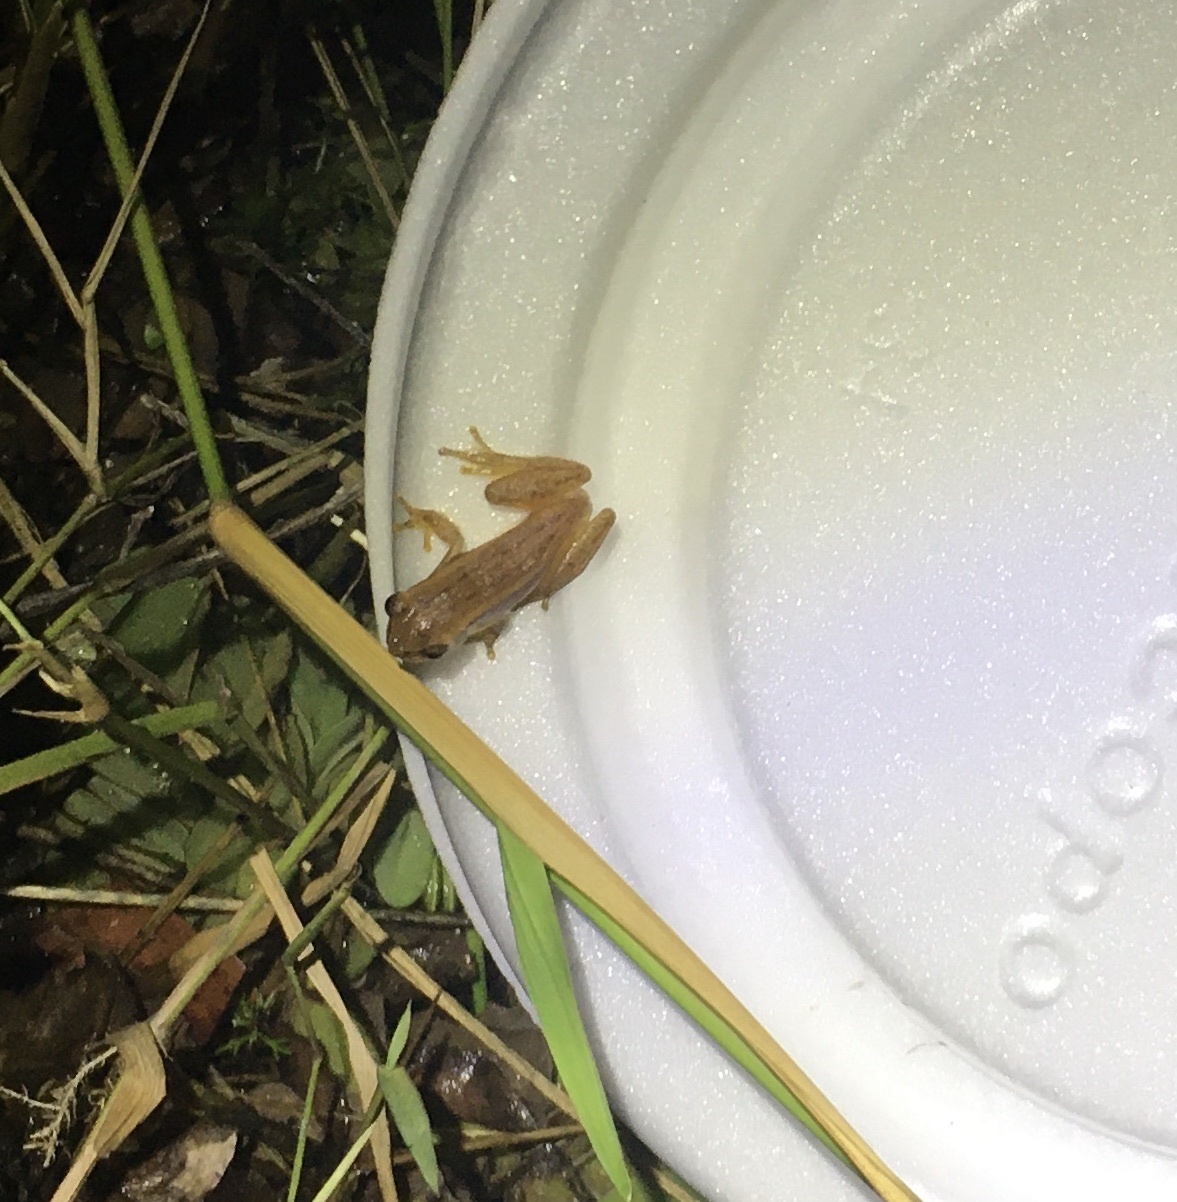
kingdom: Animalia
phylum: Chordata
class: Amphibia
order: Anura
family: Hylidae
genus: Dendropsophus
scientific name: Dendropsophus nanus
